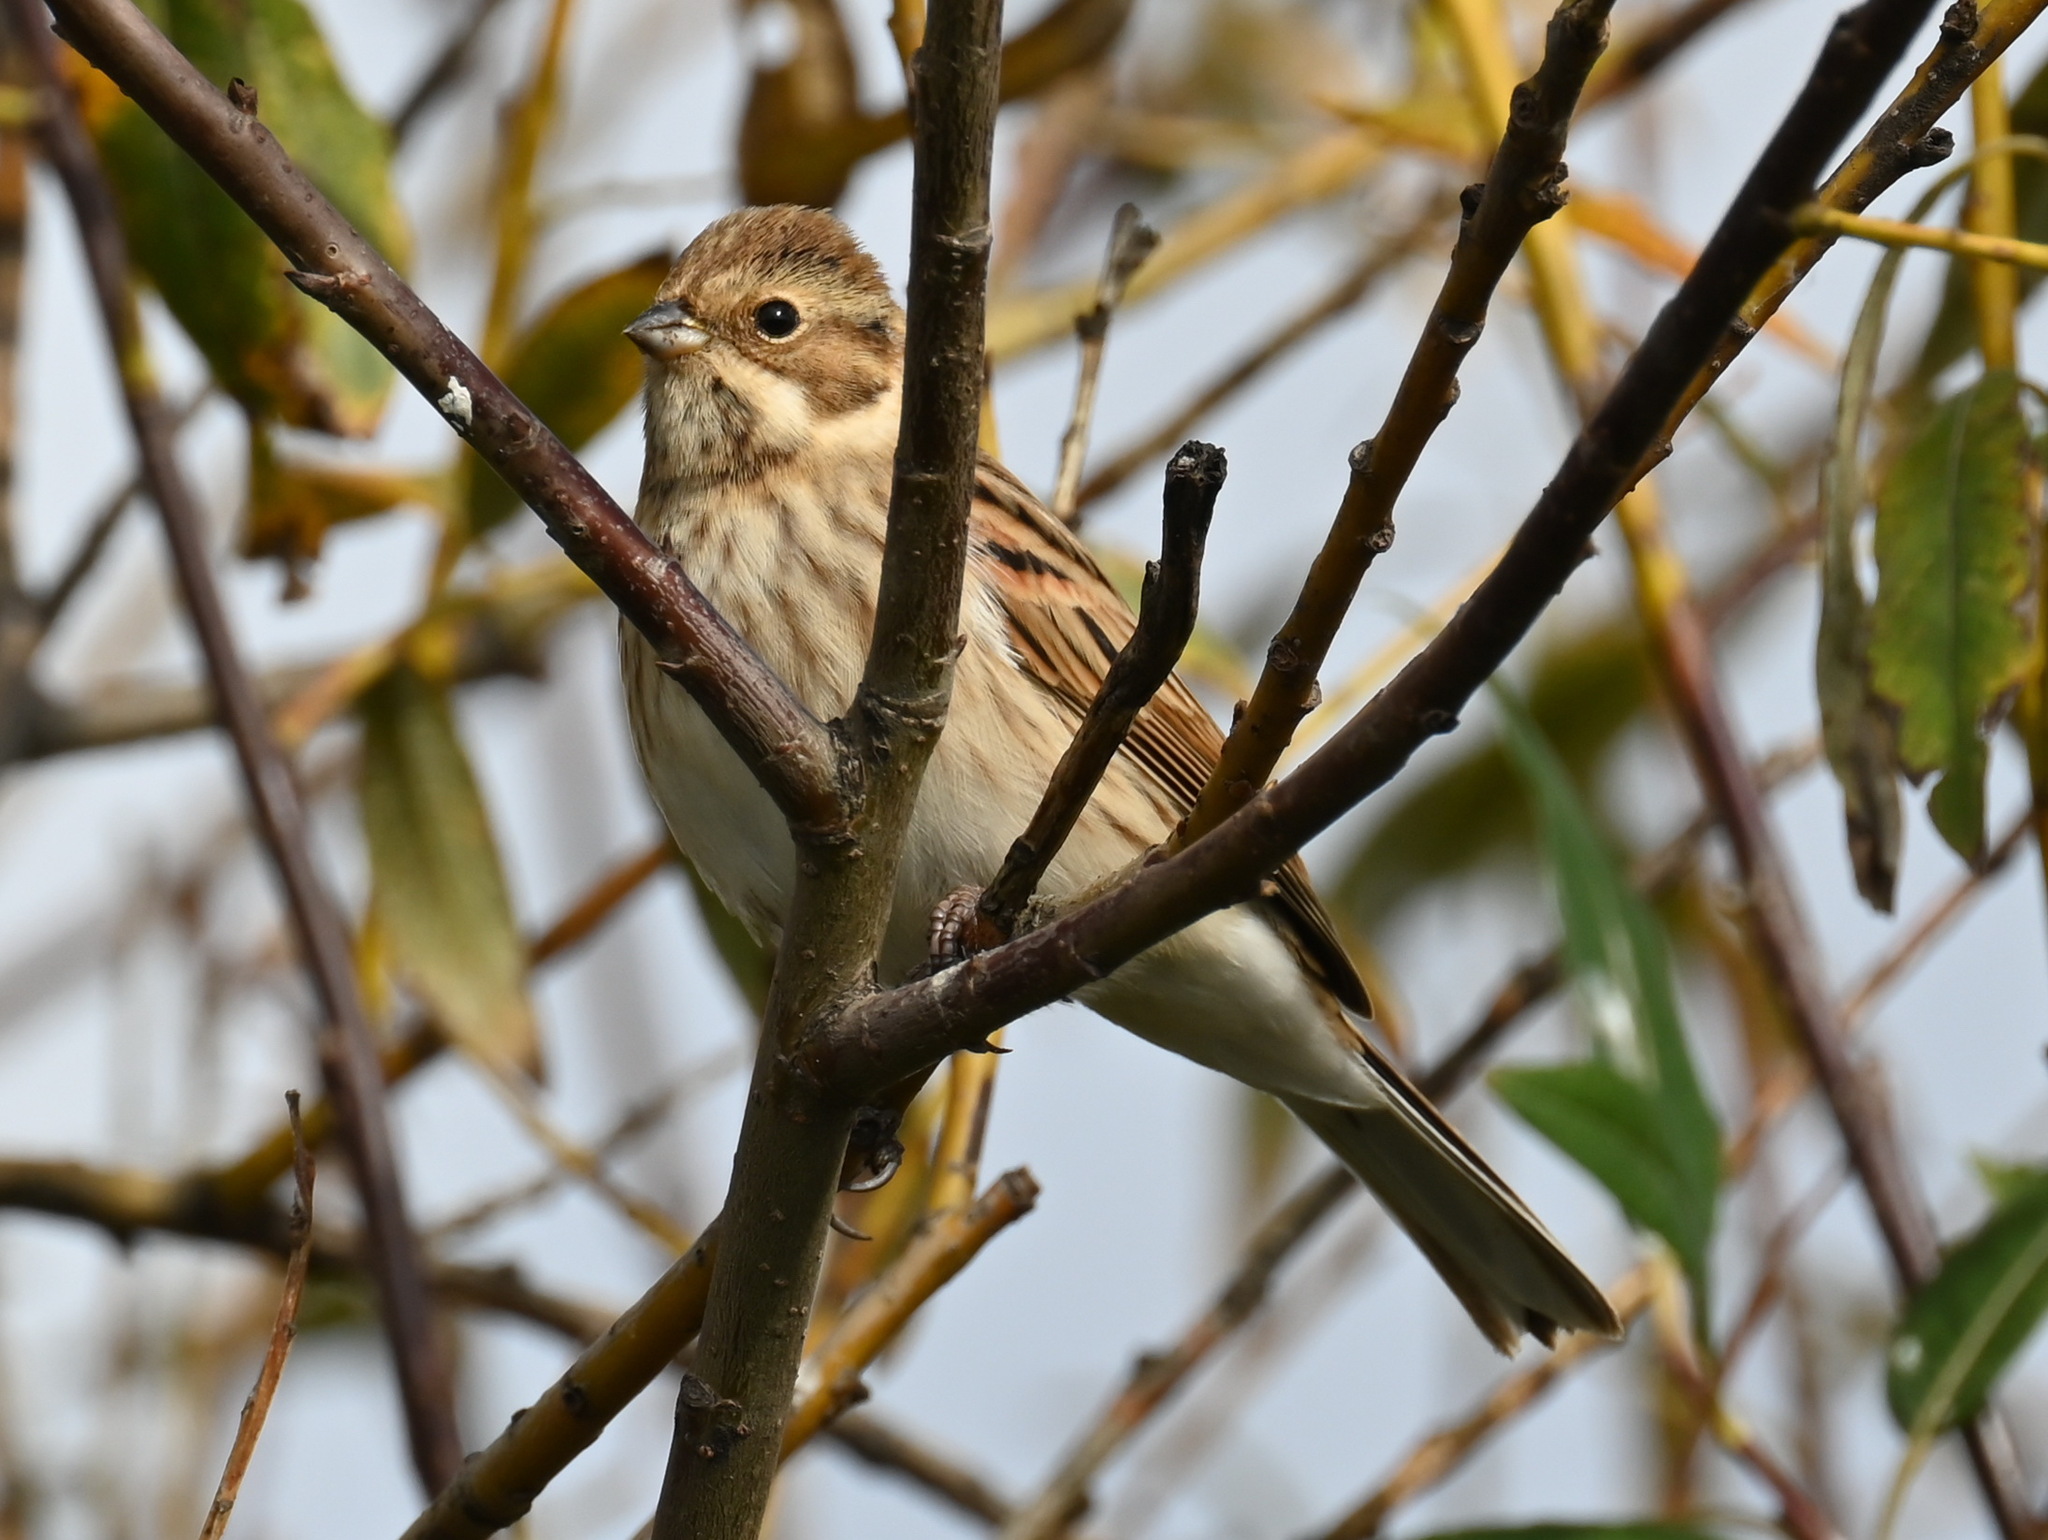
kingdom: Animalia
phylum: Chordata
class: Aves
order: Passeriformes
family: Emberizidae
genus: Emberiza
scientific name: Emberiza schoeniclus
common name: Reed bunting
